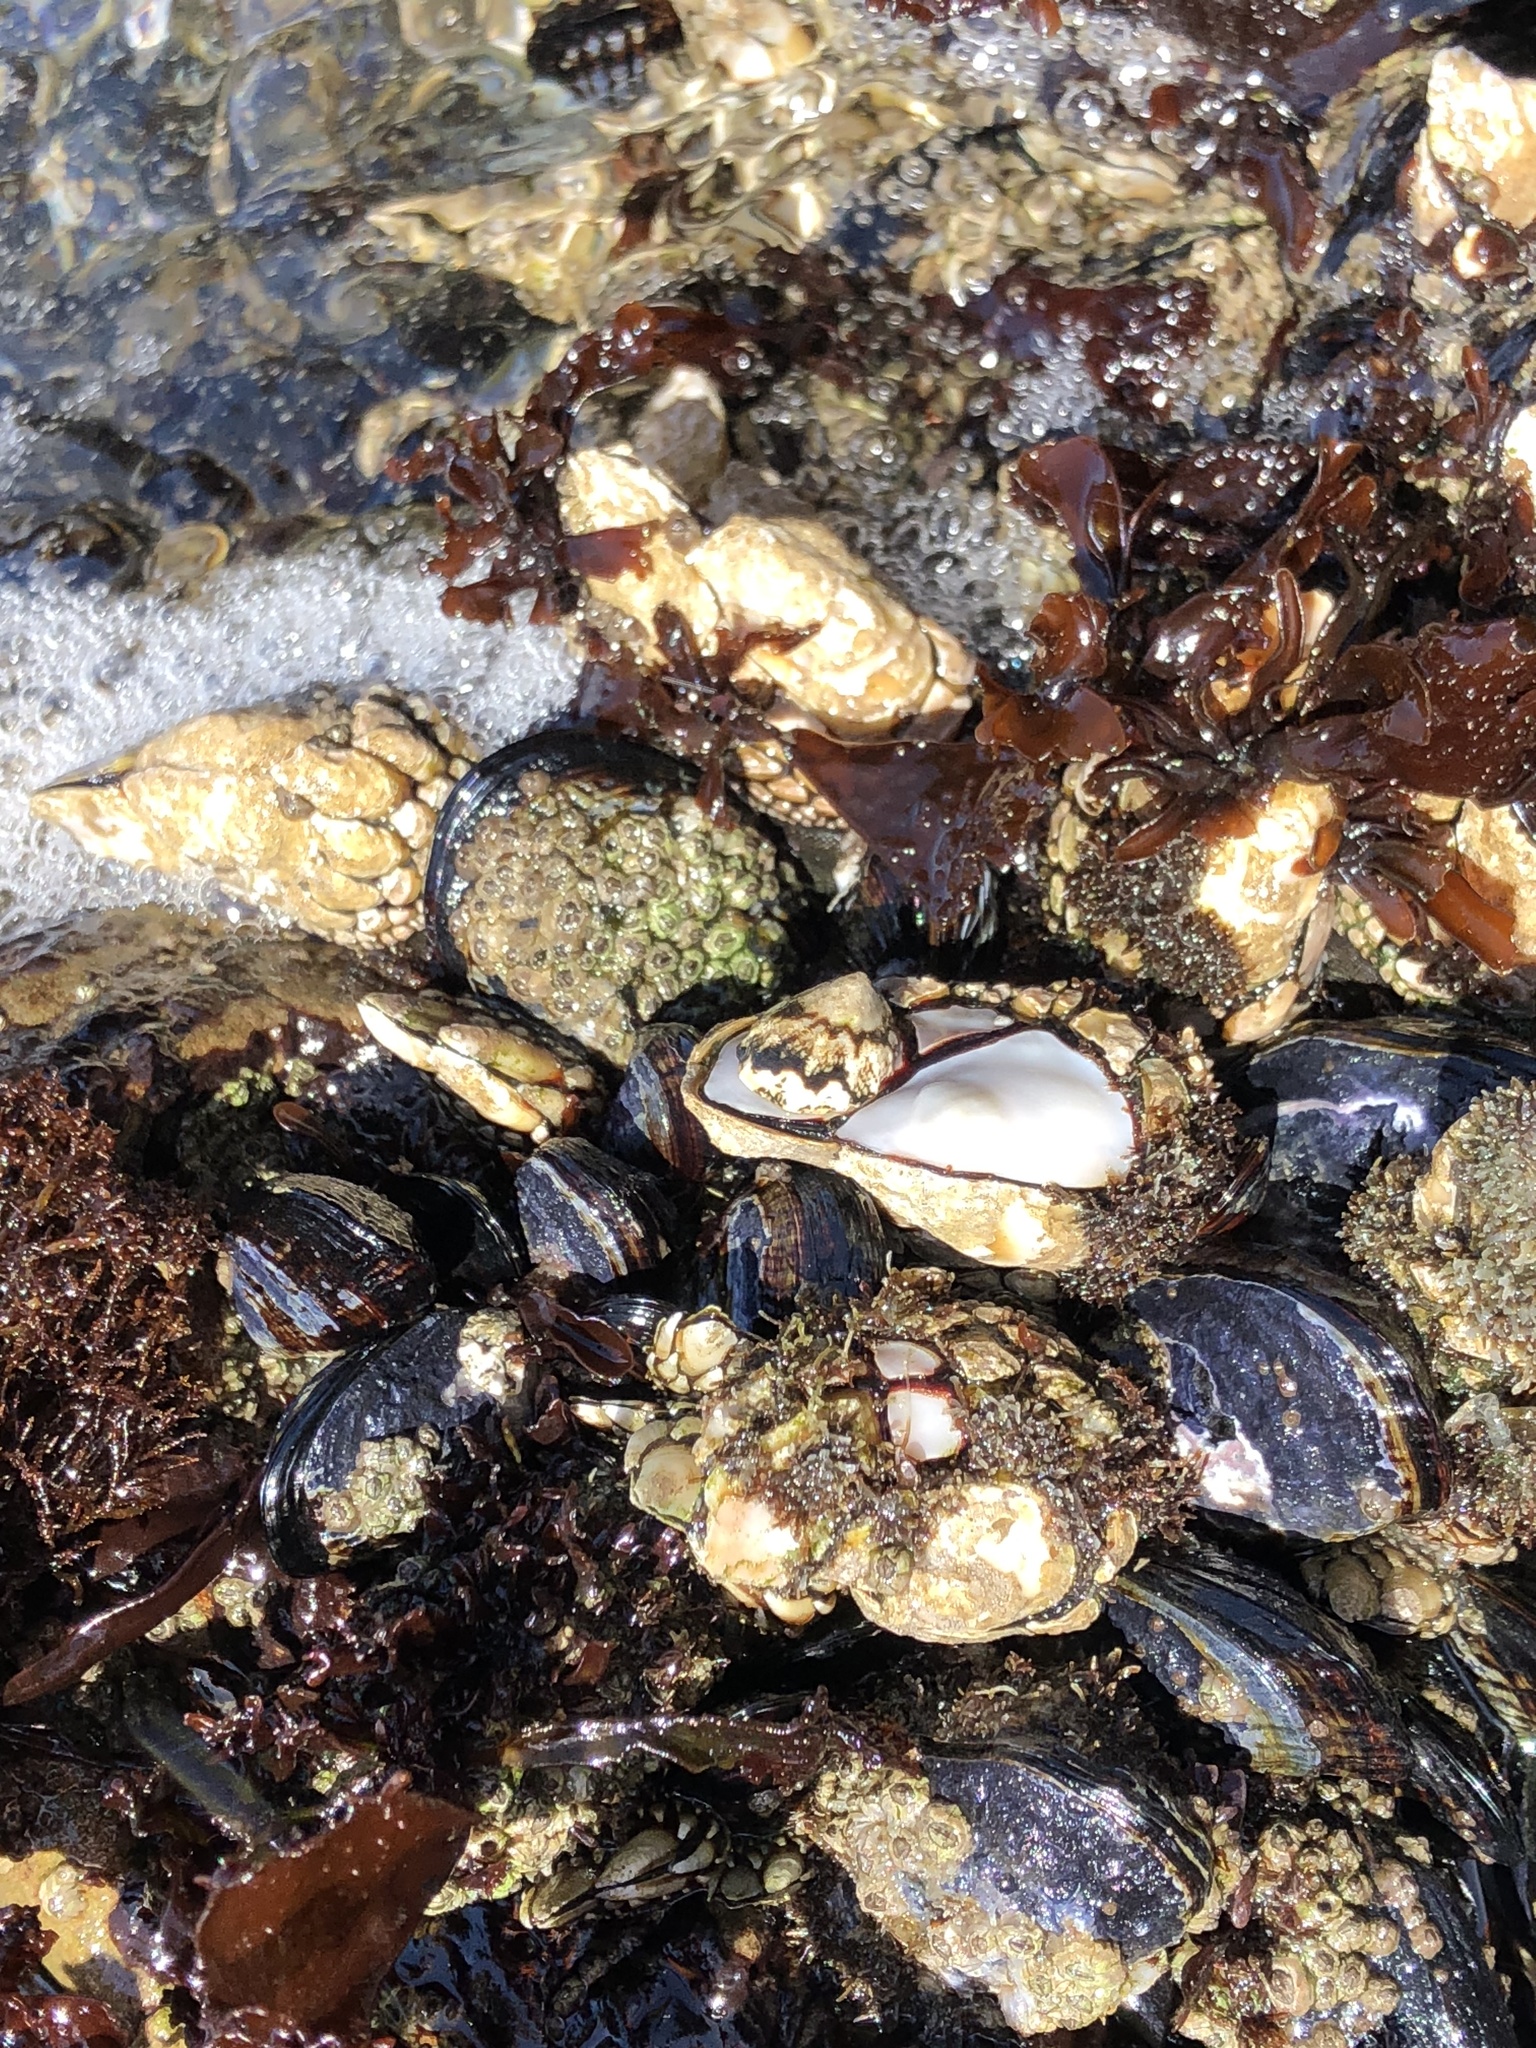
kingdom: Animalia
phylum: Arthropoda
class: Maxillopoda
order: Pedunculata
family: Pollicipedidae
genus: Pollicipes
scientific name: Pollicipes polymerus
